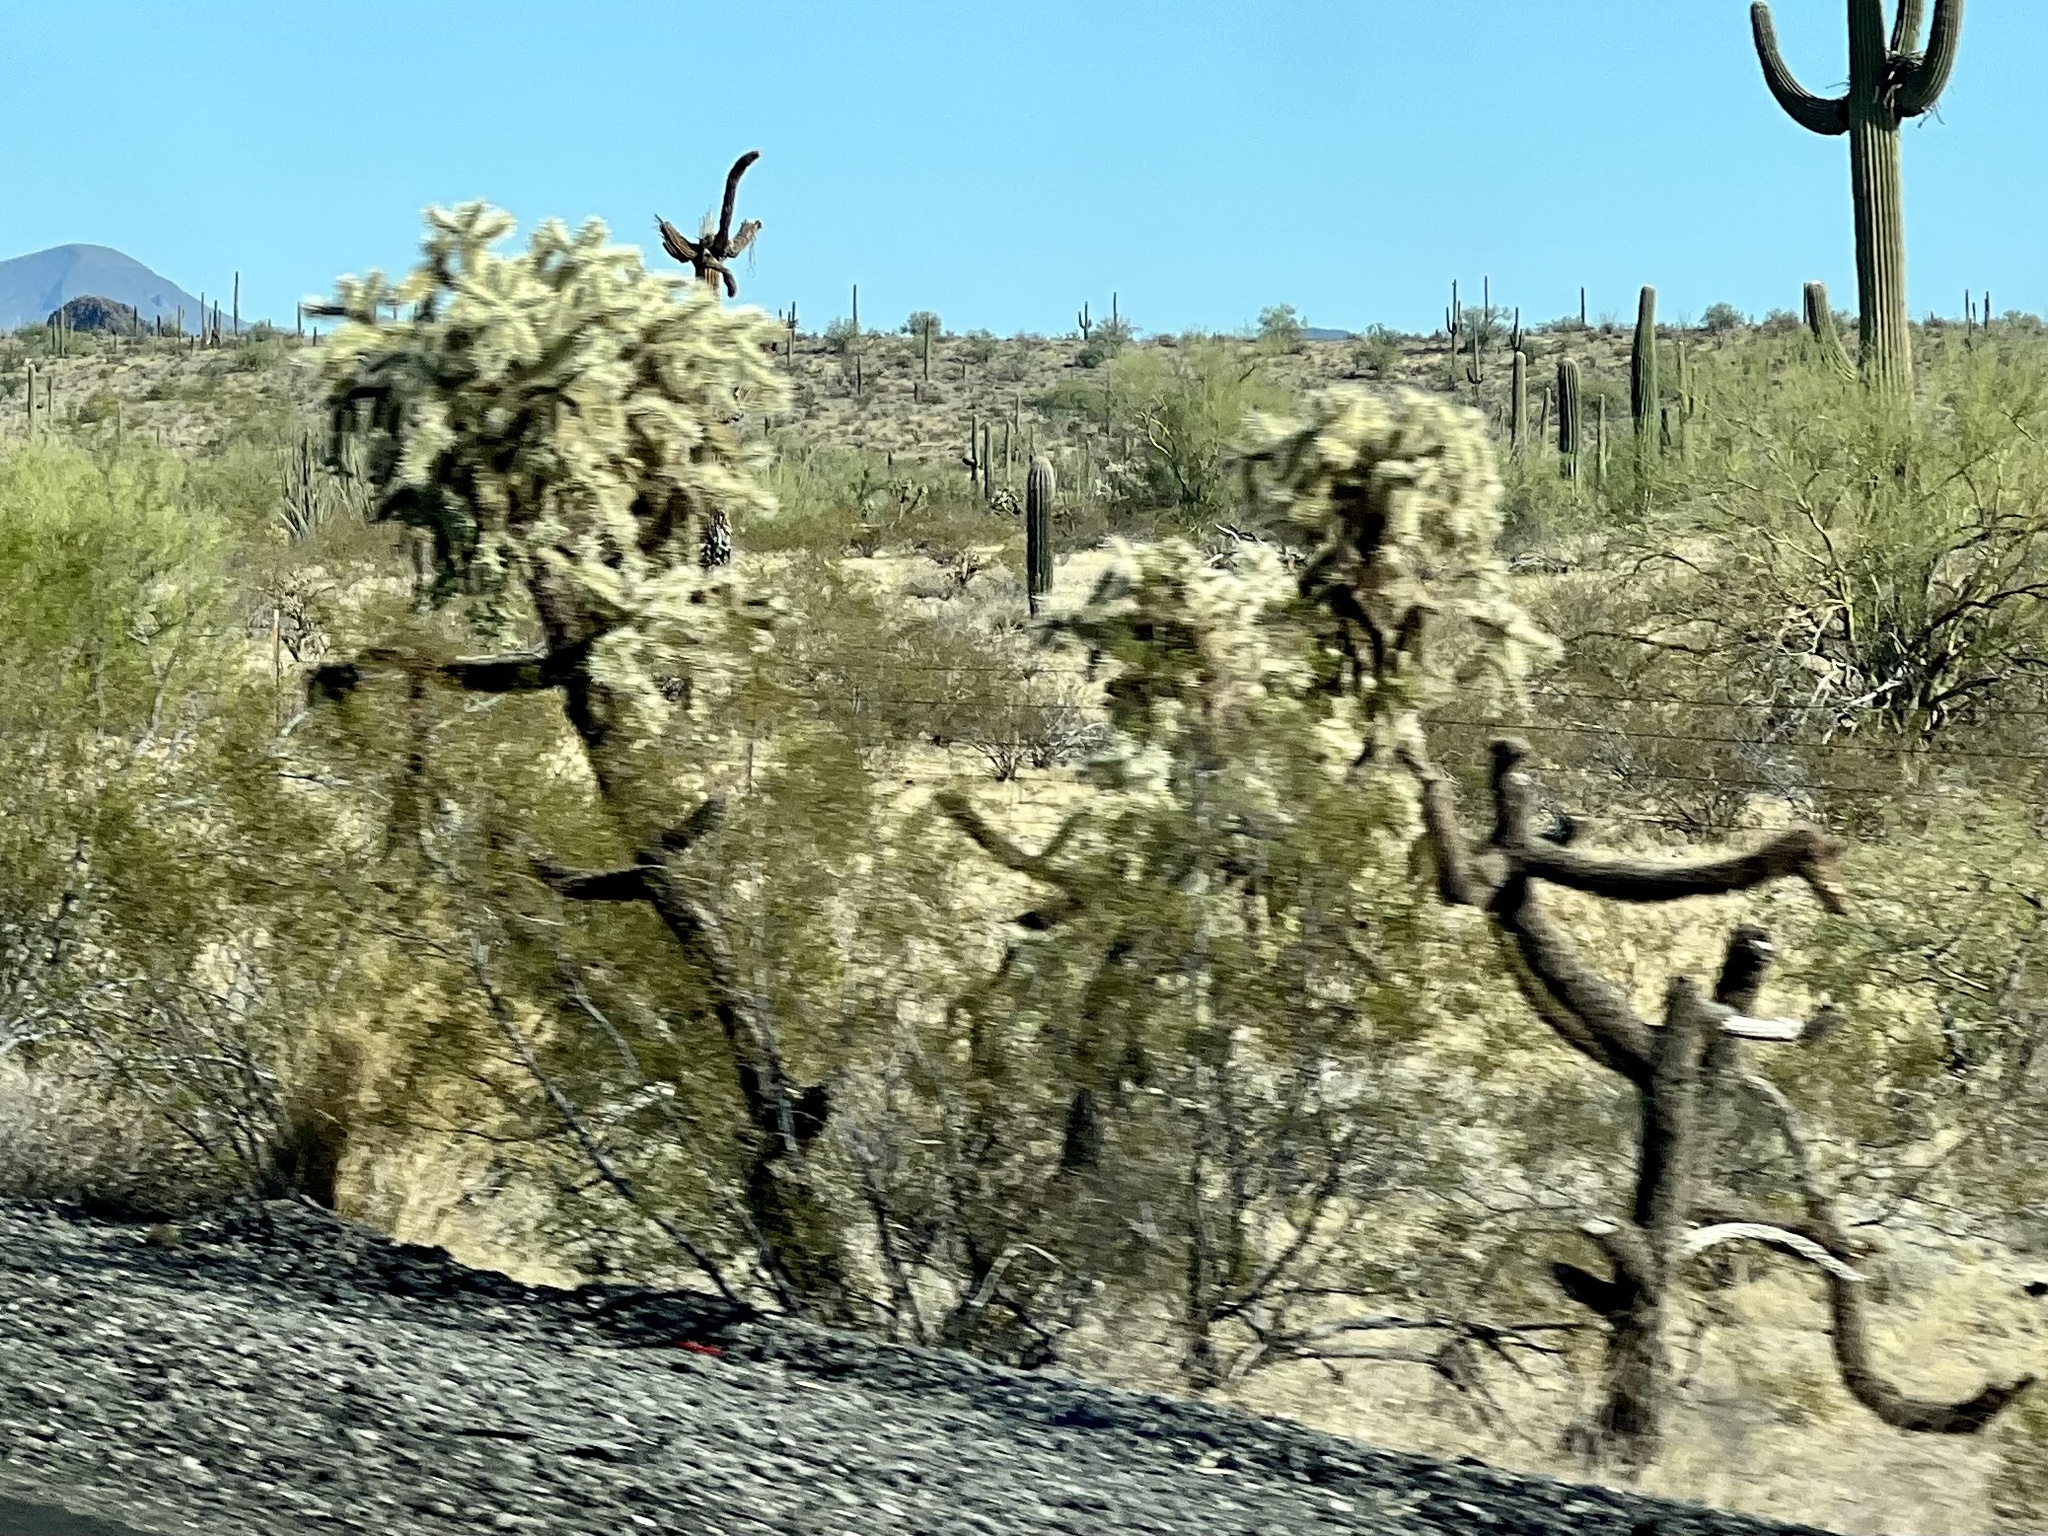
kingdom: Plantae
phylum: Tracheophyta
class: Magnoliopsida
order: Caryophyllales
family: Cactaceae
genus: Cylindropuntia
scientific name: Cylindropuntia fulgida
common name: Jumping cholla
